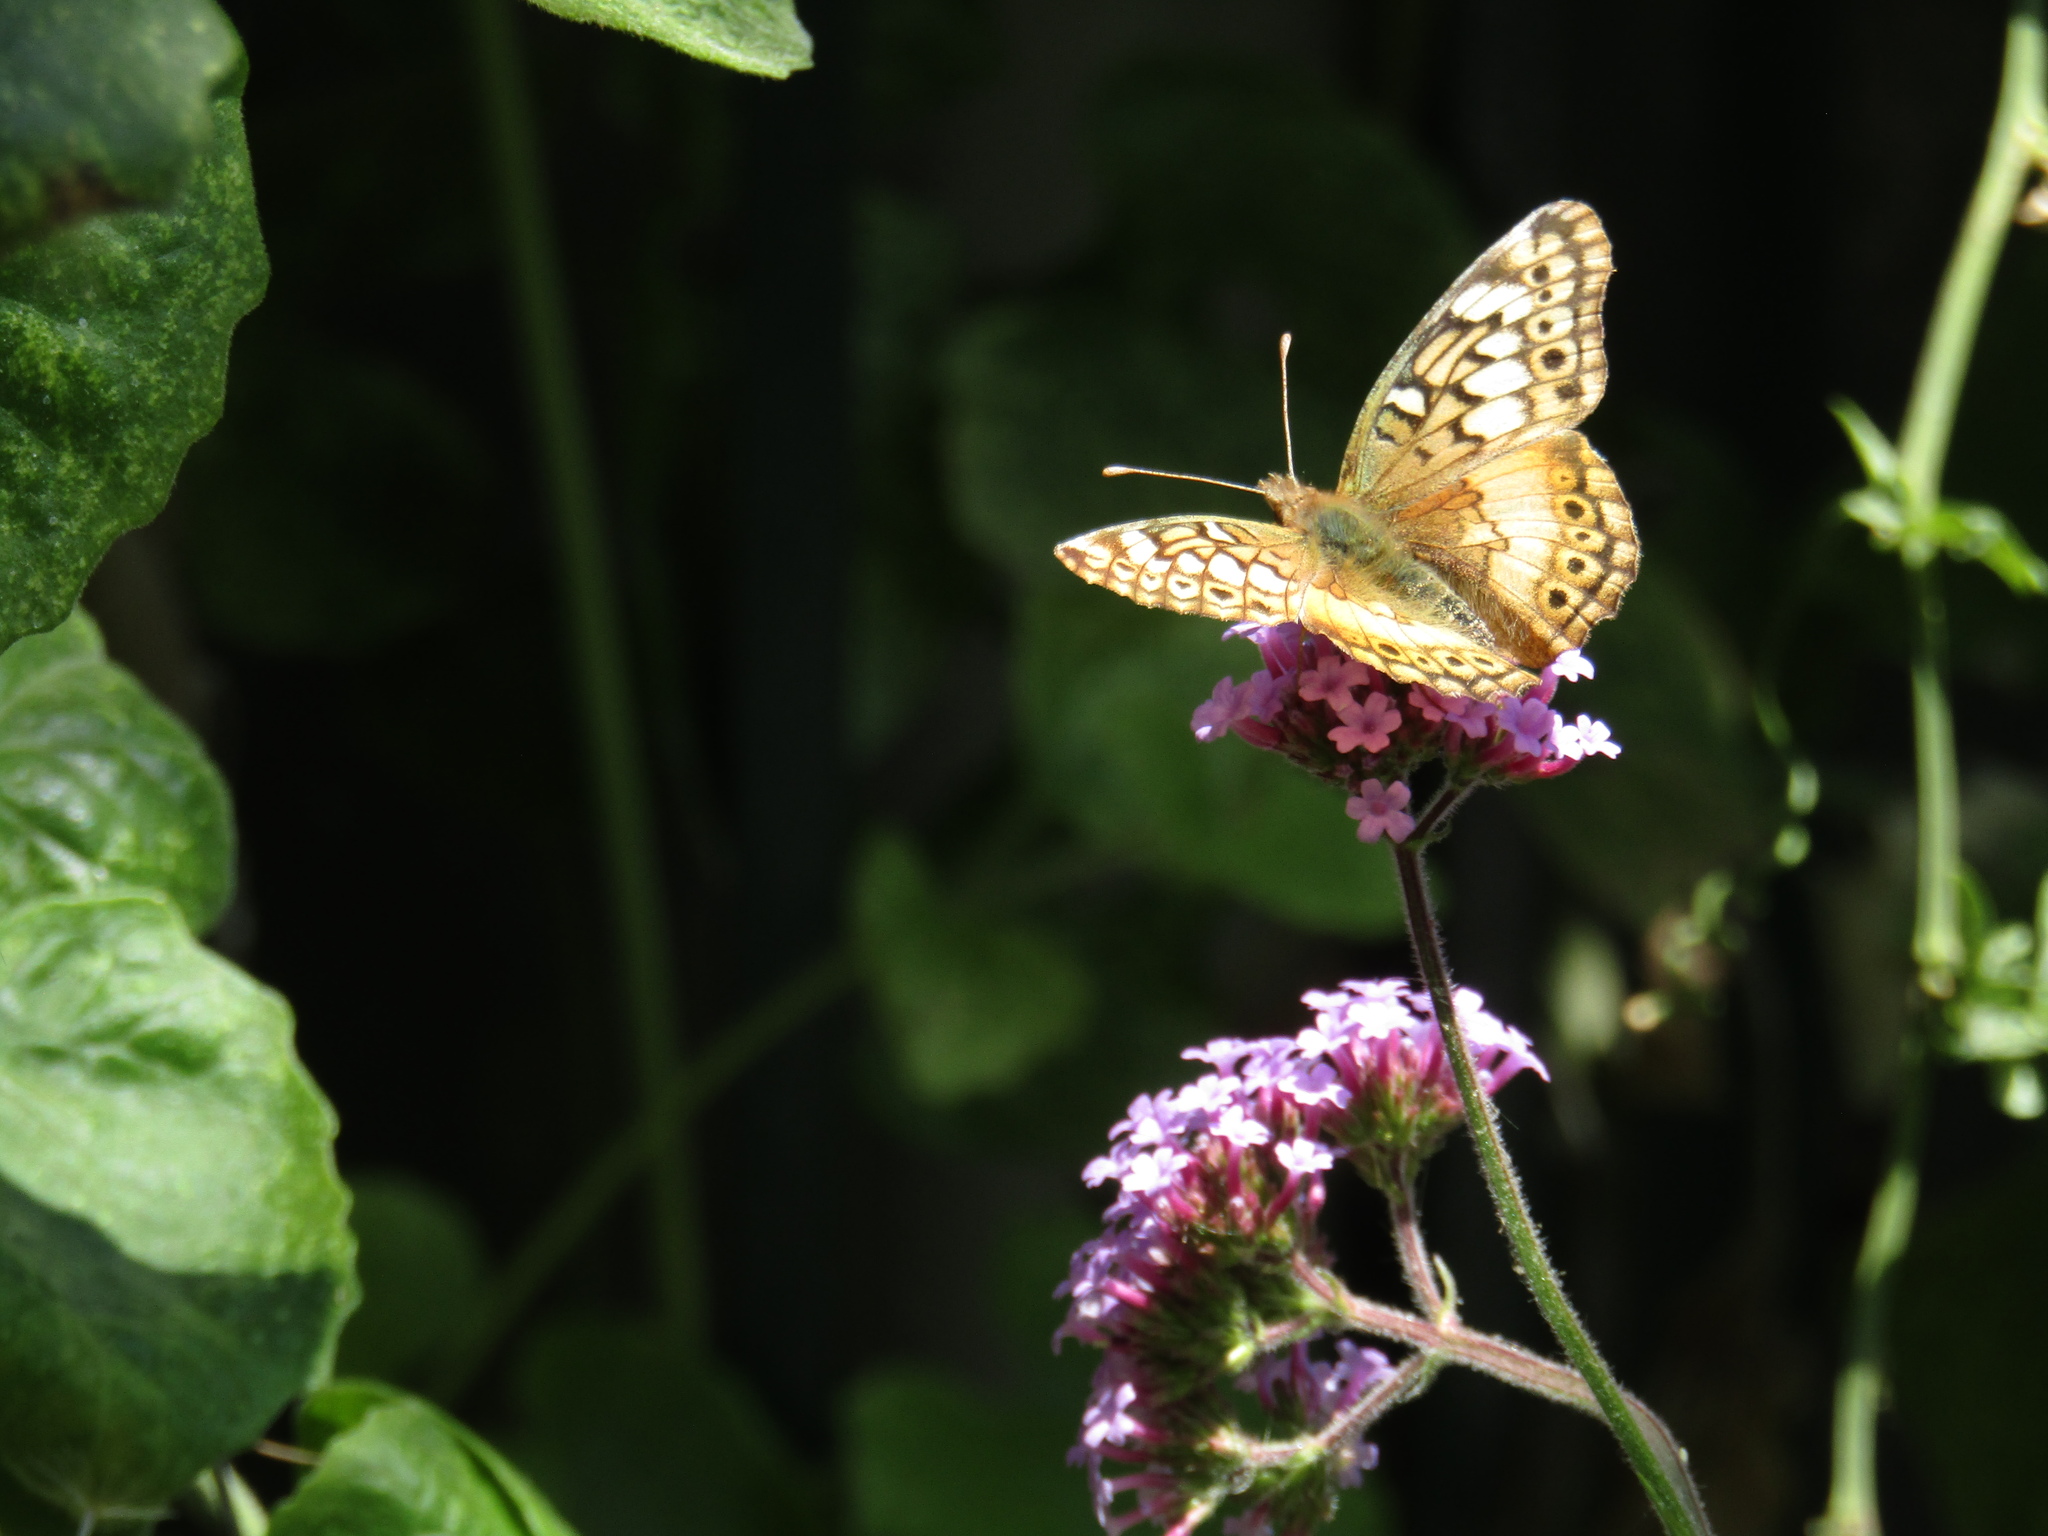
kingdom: Animalia
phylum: Arthropoda
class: Insecta
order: Lepidoptera
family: Nymphalidae
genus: Euptoieta
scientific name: Euptoieta hortensia
